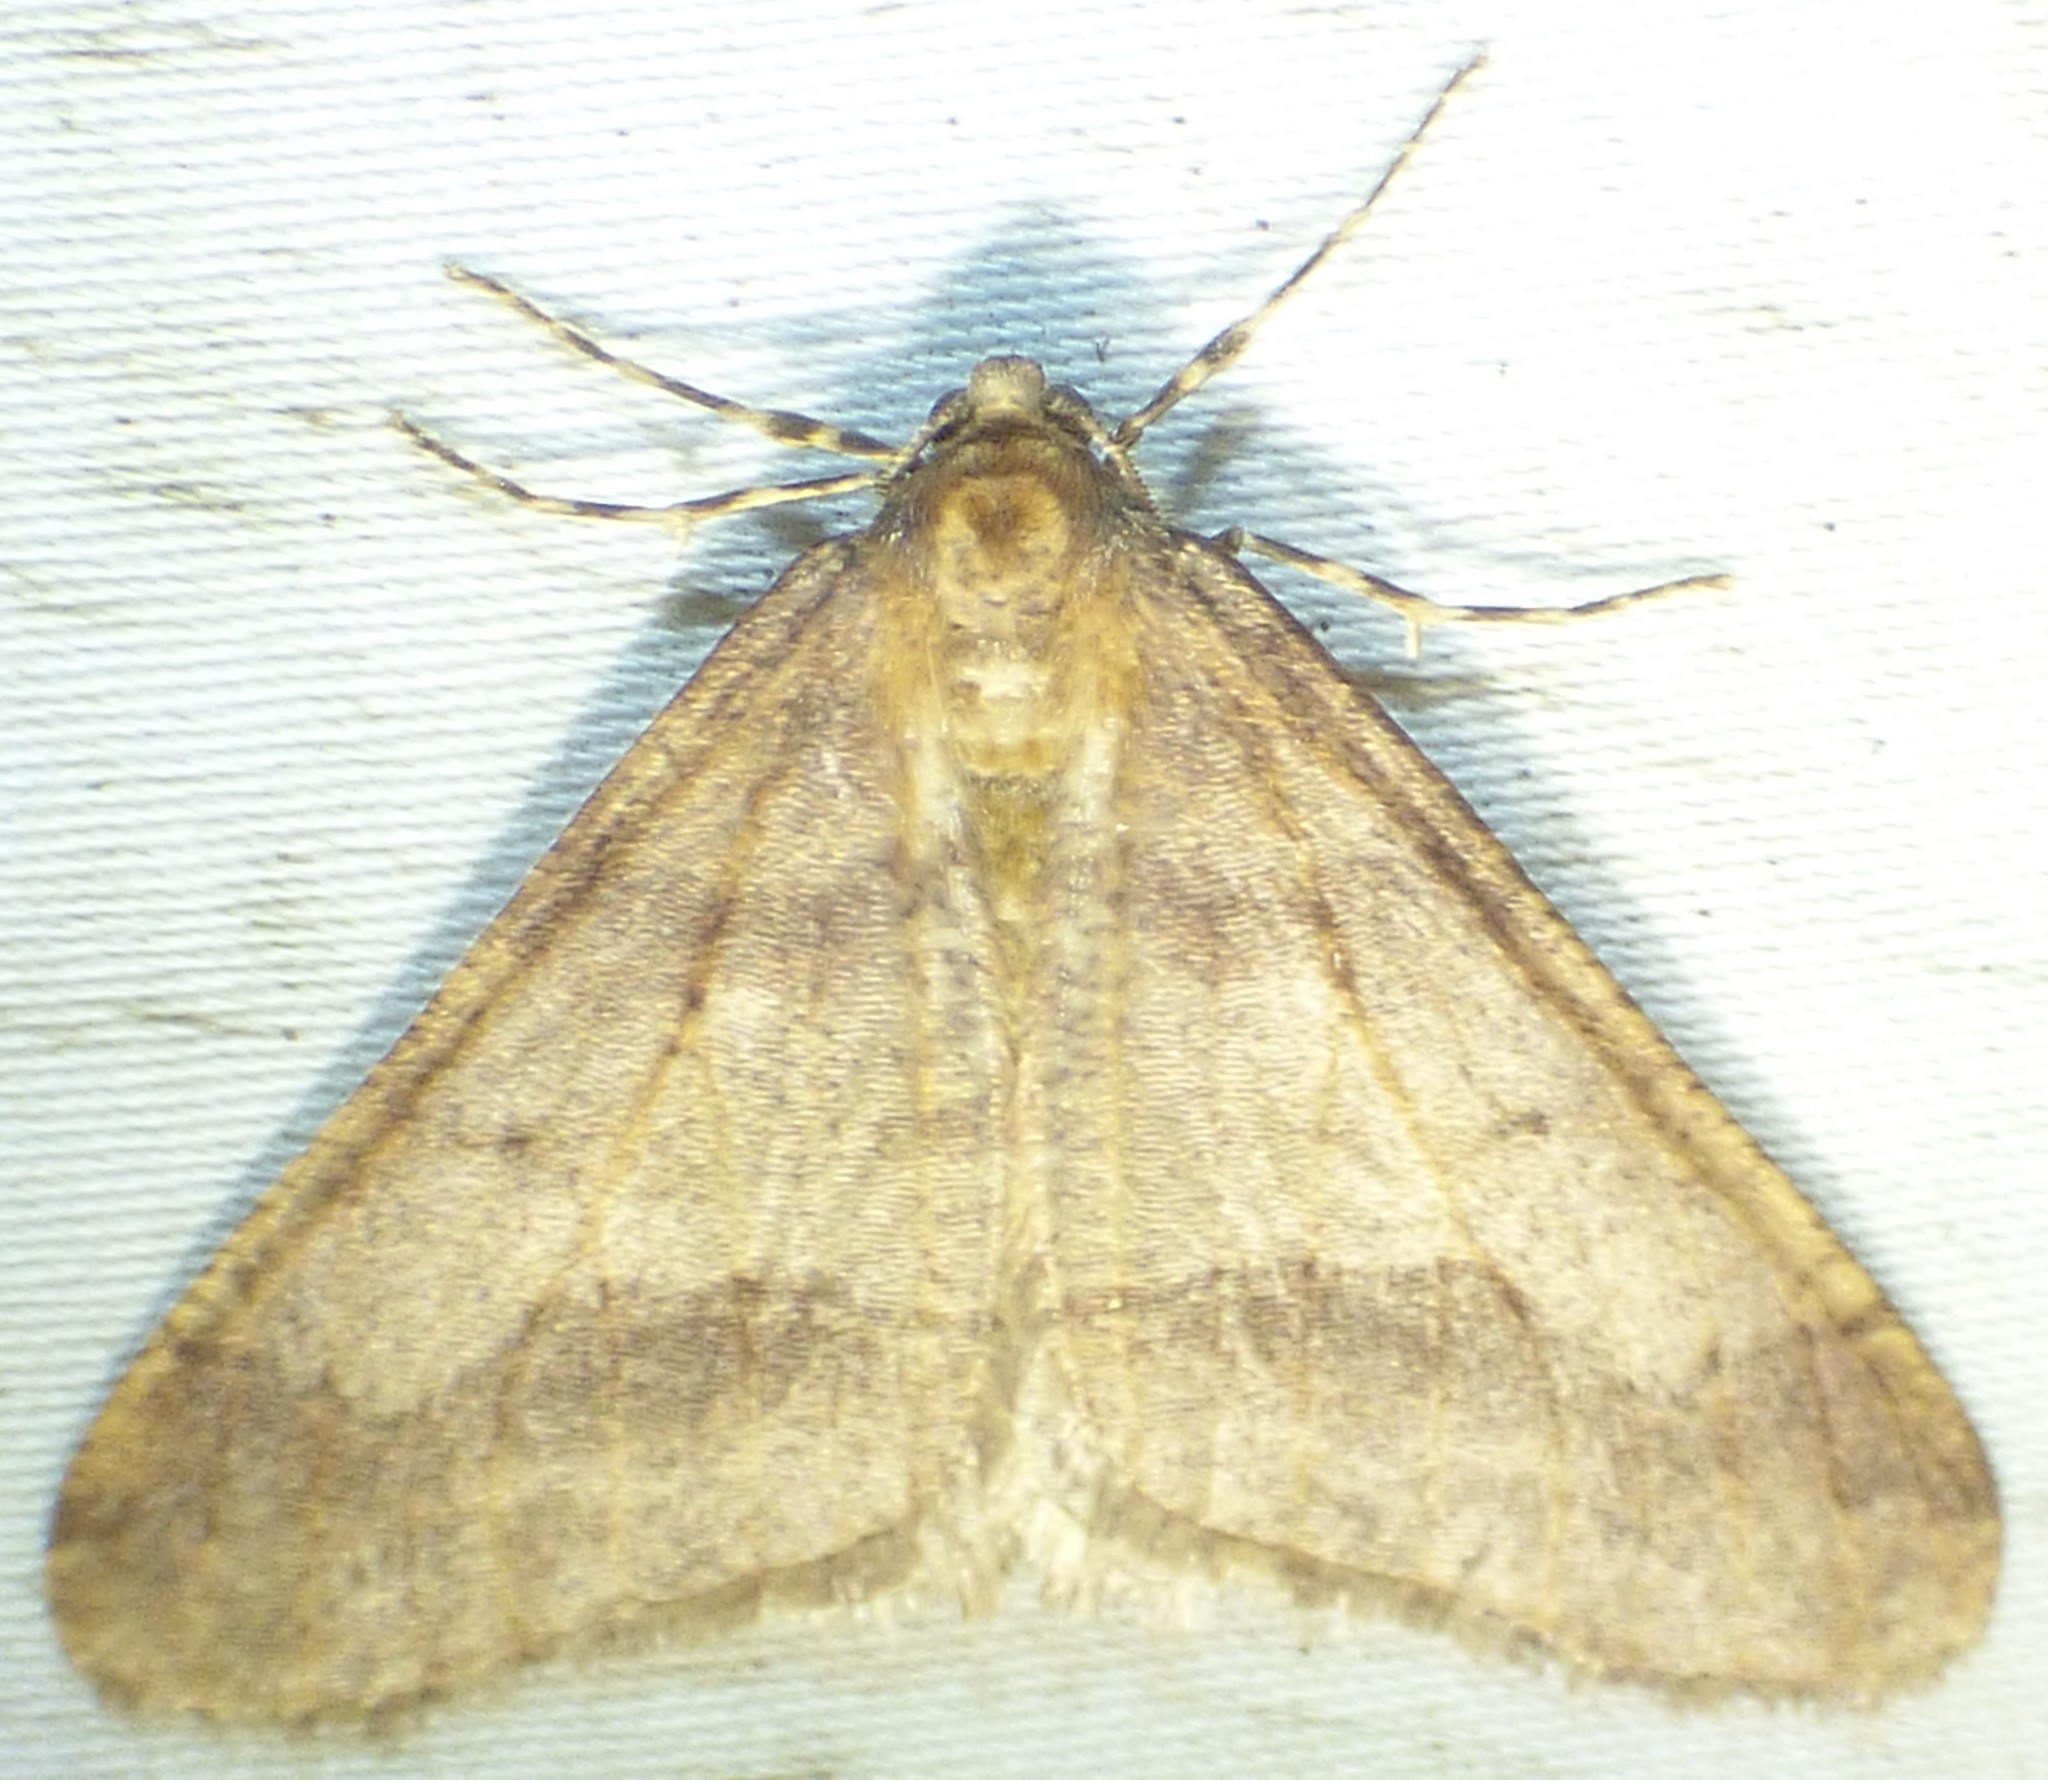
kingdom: Animalia
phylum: Arthropoda
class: Insecta
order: Lepidoptera
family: Geometridae
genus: Erannis
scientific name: Erannis tiliaria
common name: Linden looper
